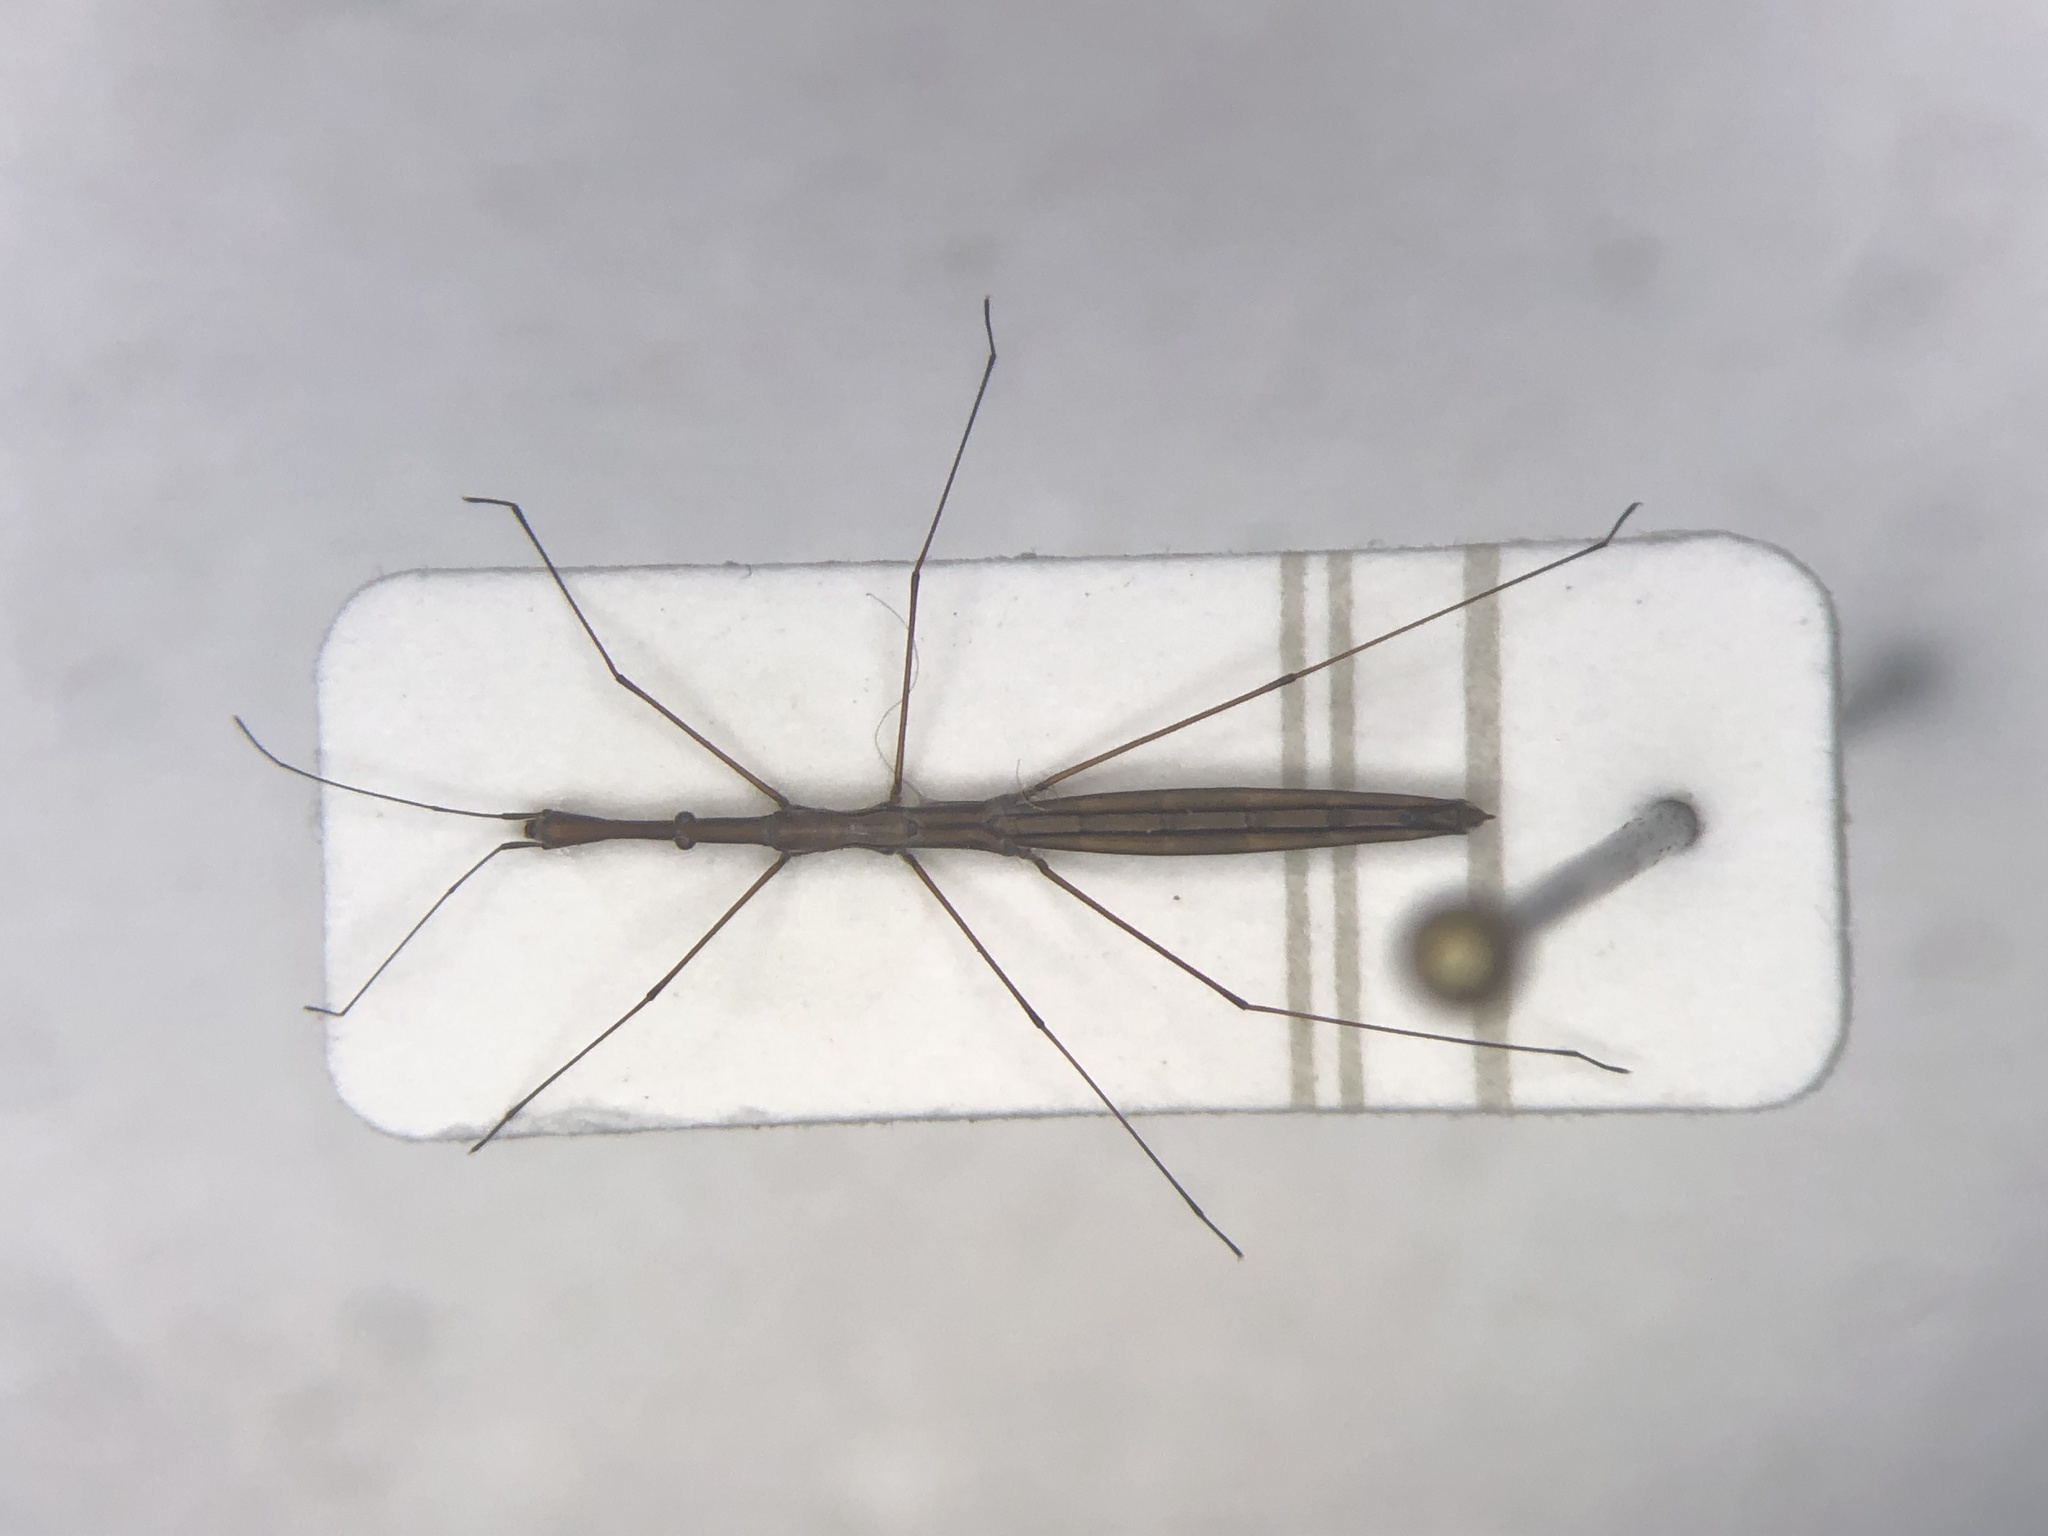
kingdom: Animalia
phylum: Arthropoda
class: Insecta
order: Hemiptera
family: Hydrometridae
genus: Hydrometra
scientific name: Hydrometra martini
